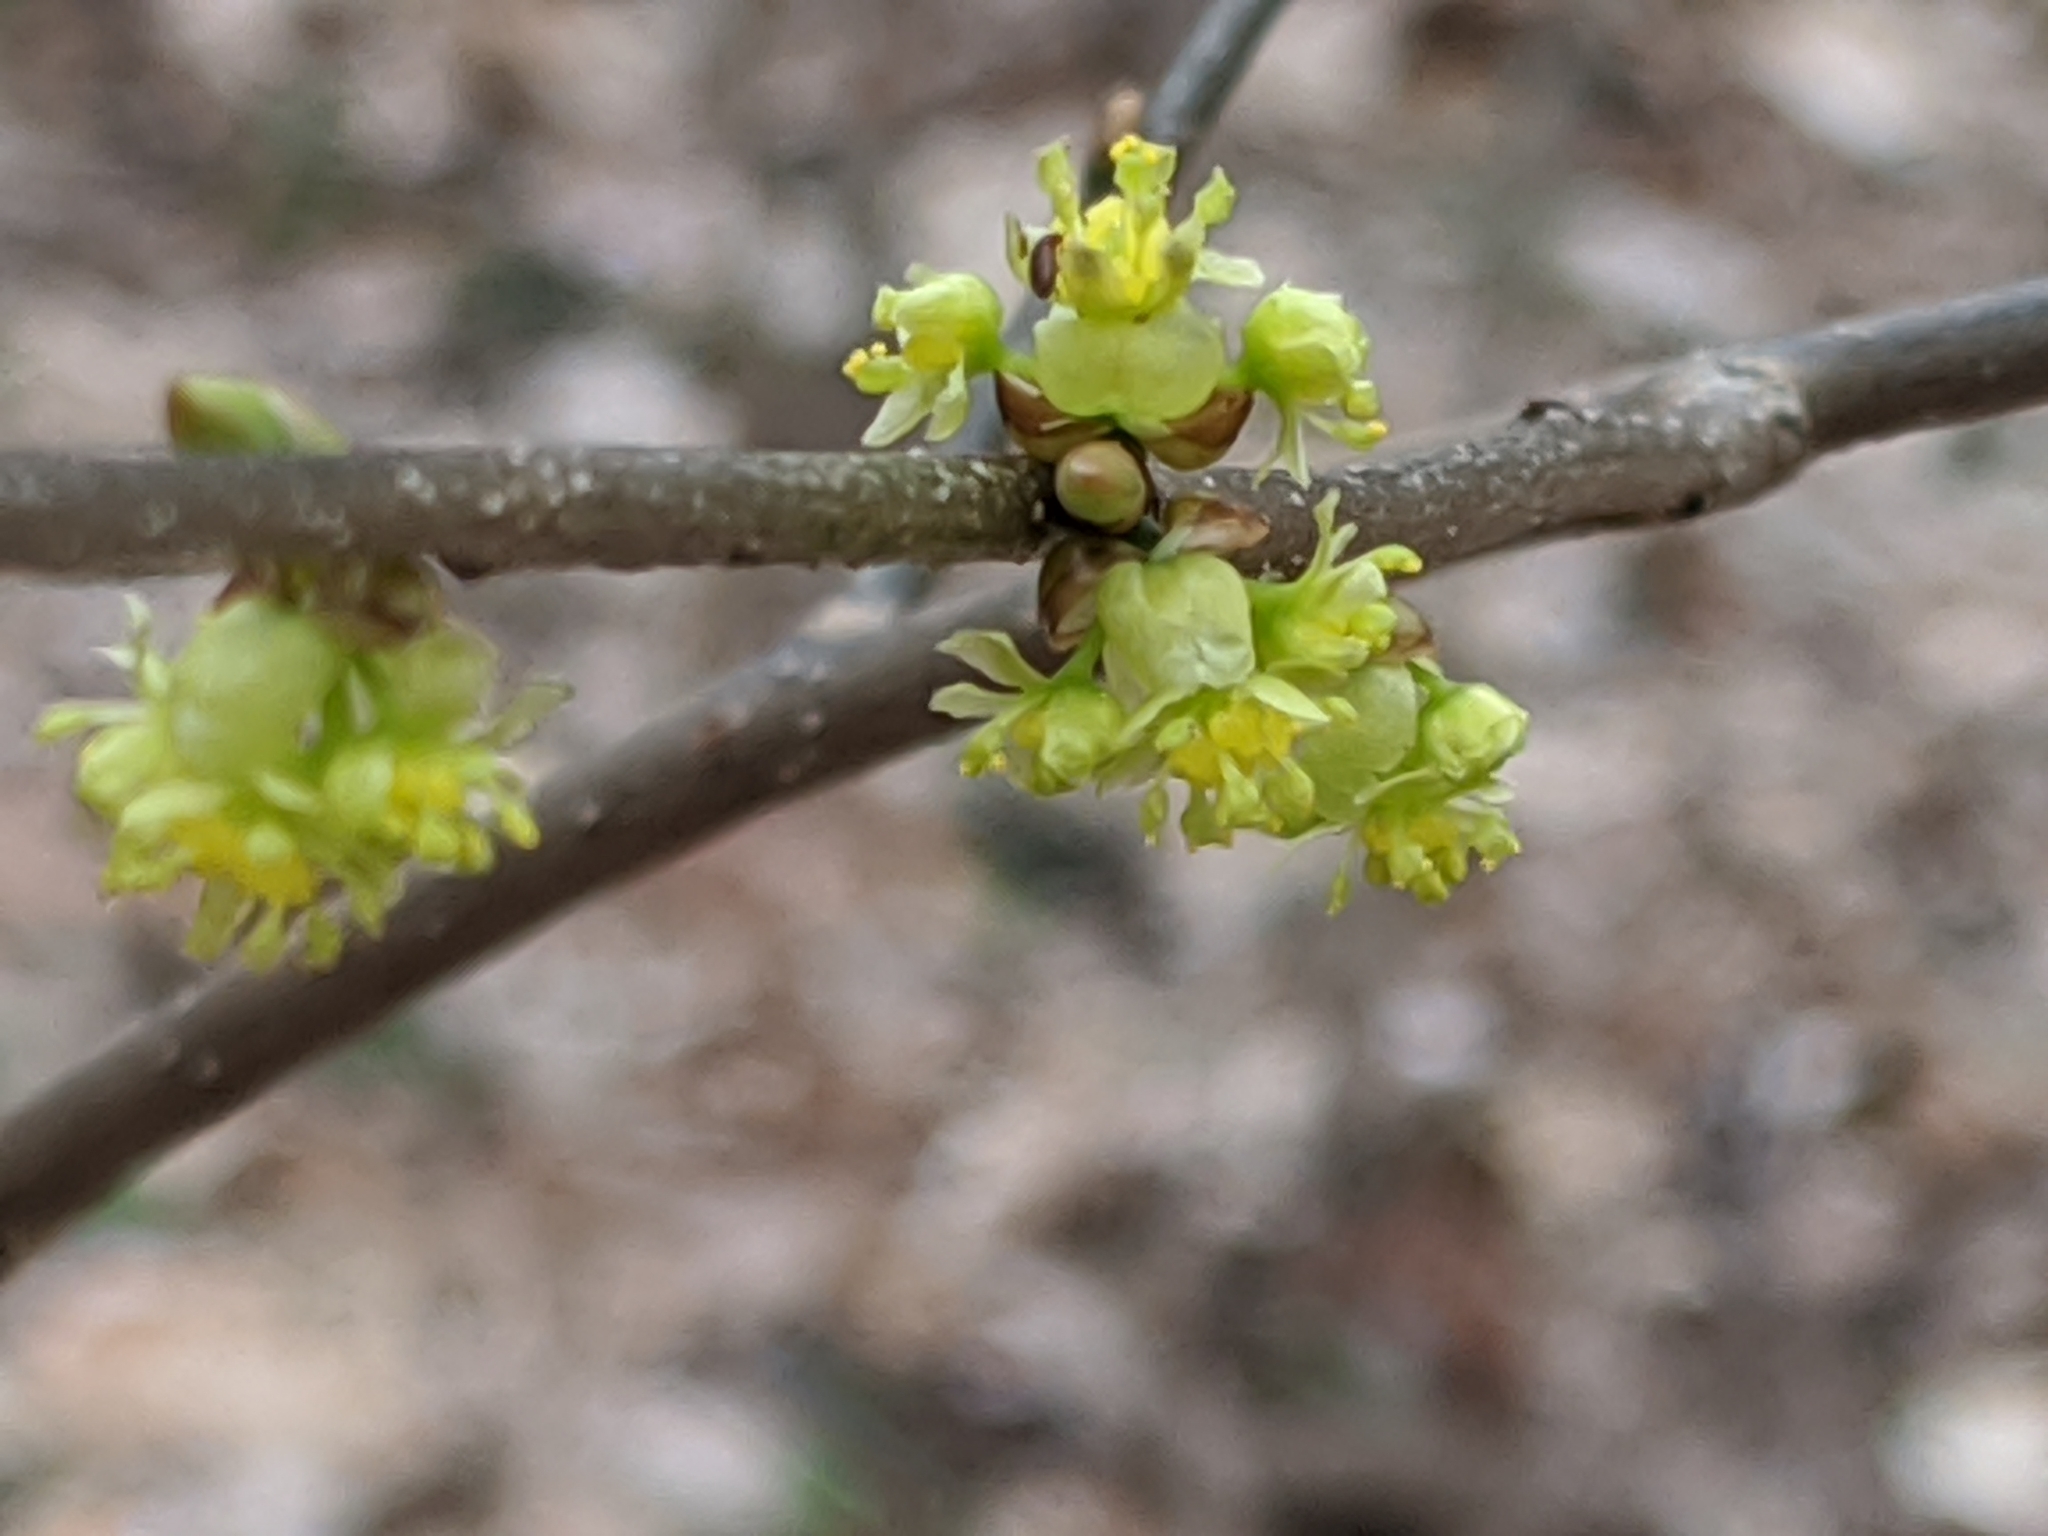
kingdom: Plantae
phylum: Tracheophyta
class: Magnoliopsida
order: Laurales
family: Lauraceae
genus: Lindera
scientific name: Lindera benzoin
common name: Spicebush
